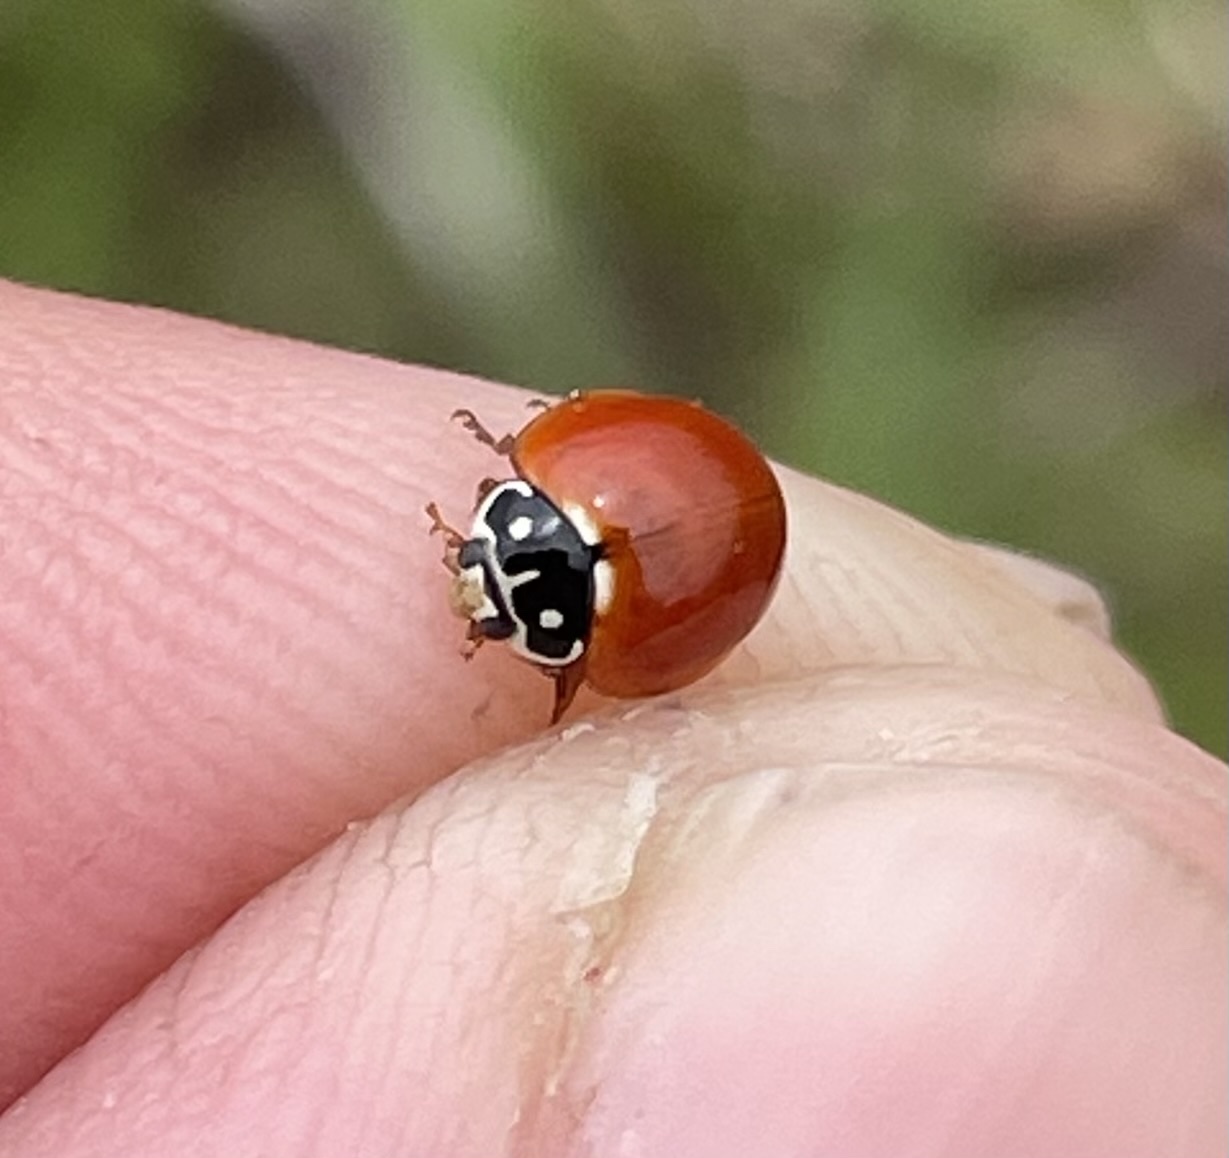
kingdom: Animalia
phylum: Arthropoda
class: Insecta
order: Coleoptera
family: Coccinellidae
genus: Cycloneda
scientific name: Cycloneda sanguinea
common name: Ladybird beetle
